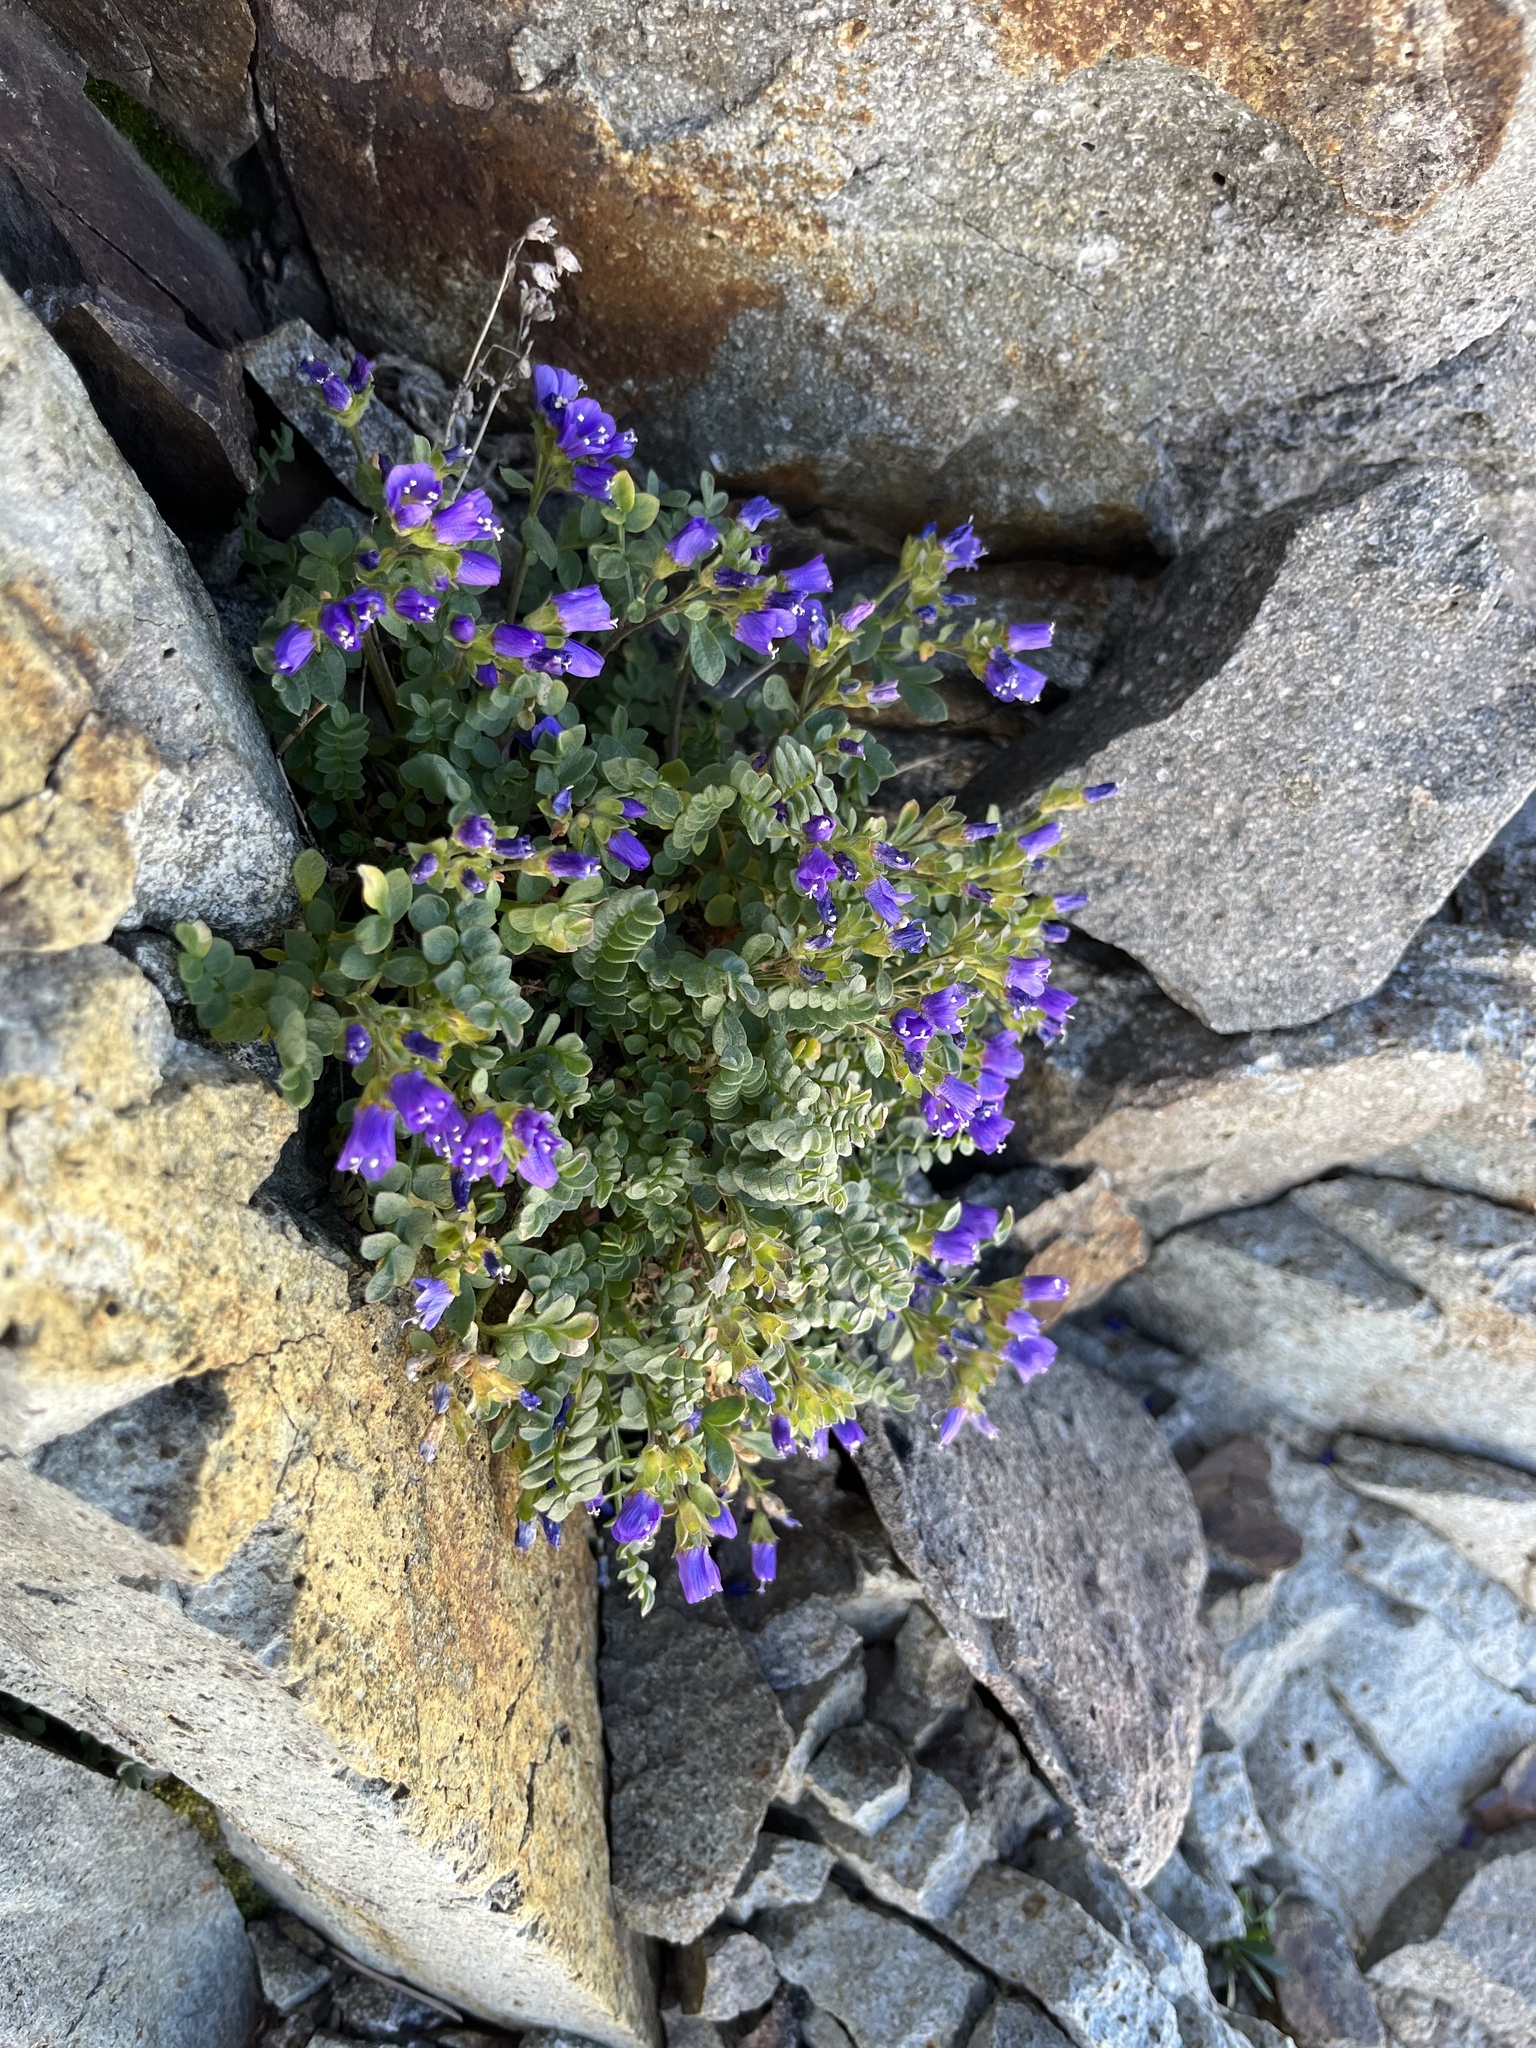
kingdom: Plantae
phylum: Tracheophyta
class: Magnoliopsida
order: Ericales
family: Polemoniaceae
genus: Polemonium
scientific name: Polemonium pulcherrimum
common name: Short jacob's-ladder
